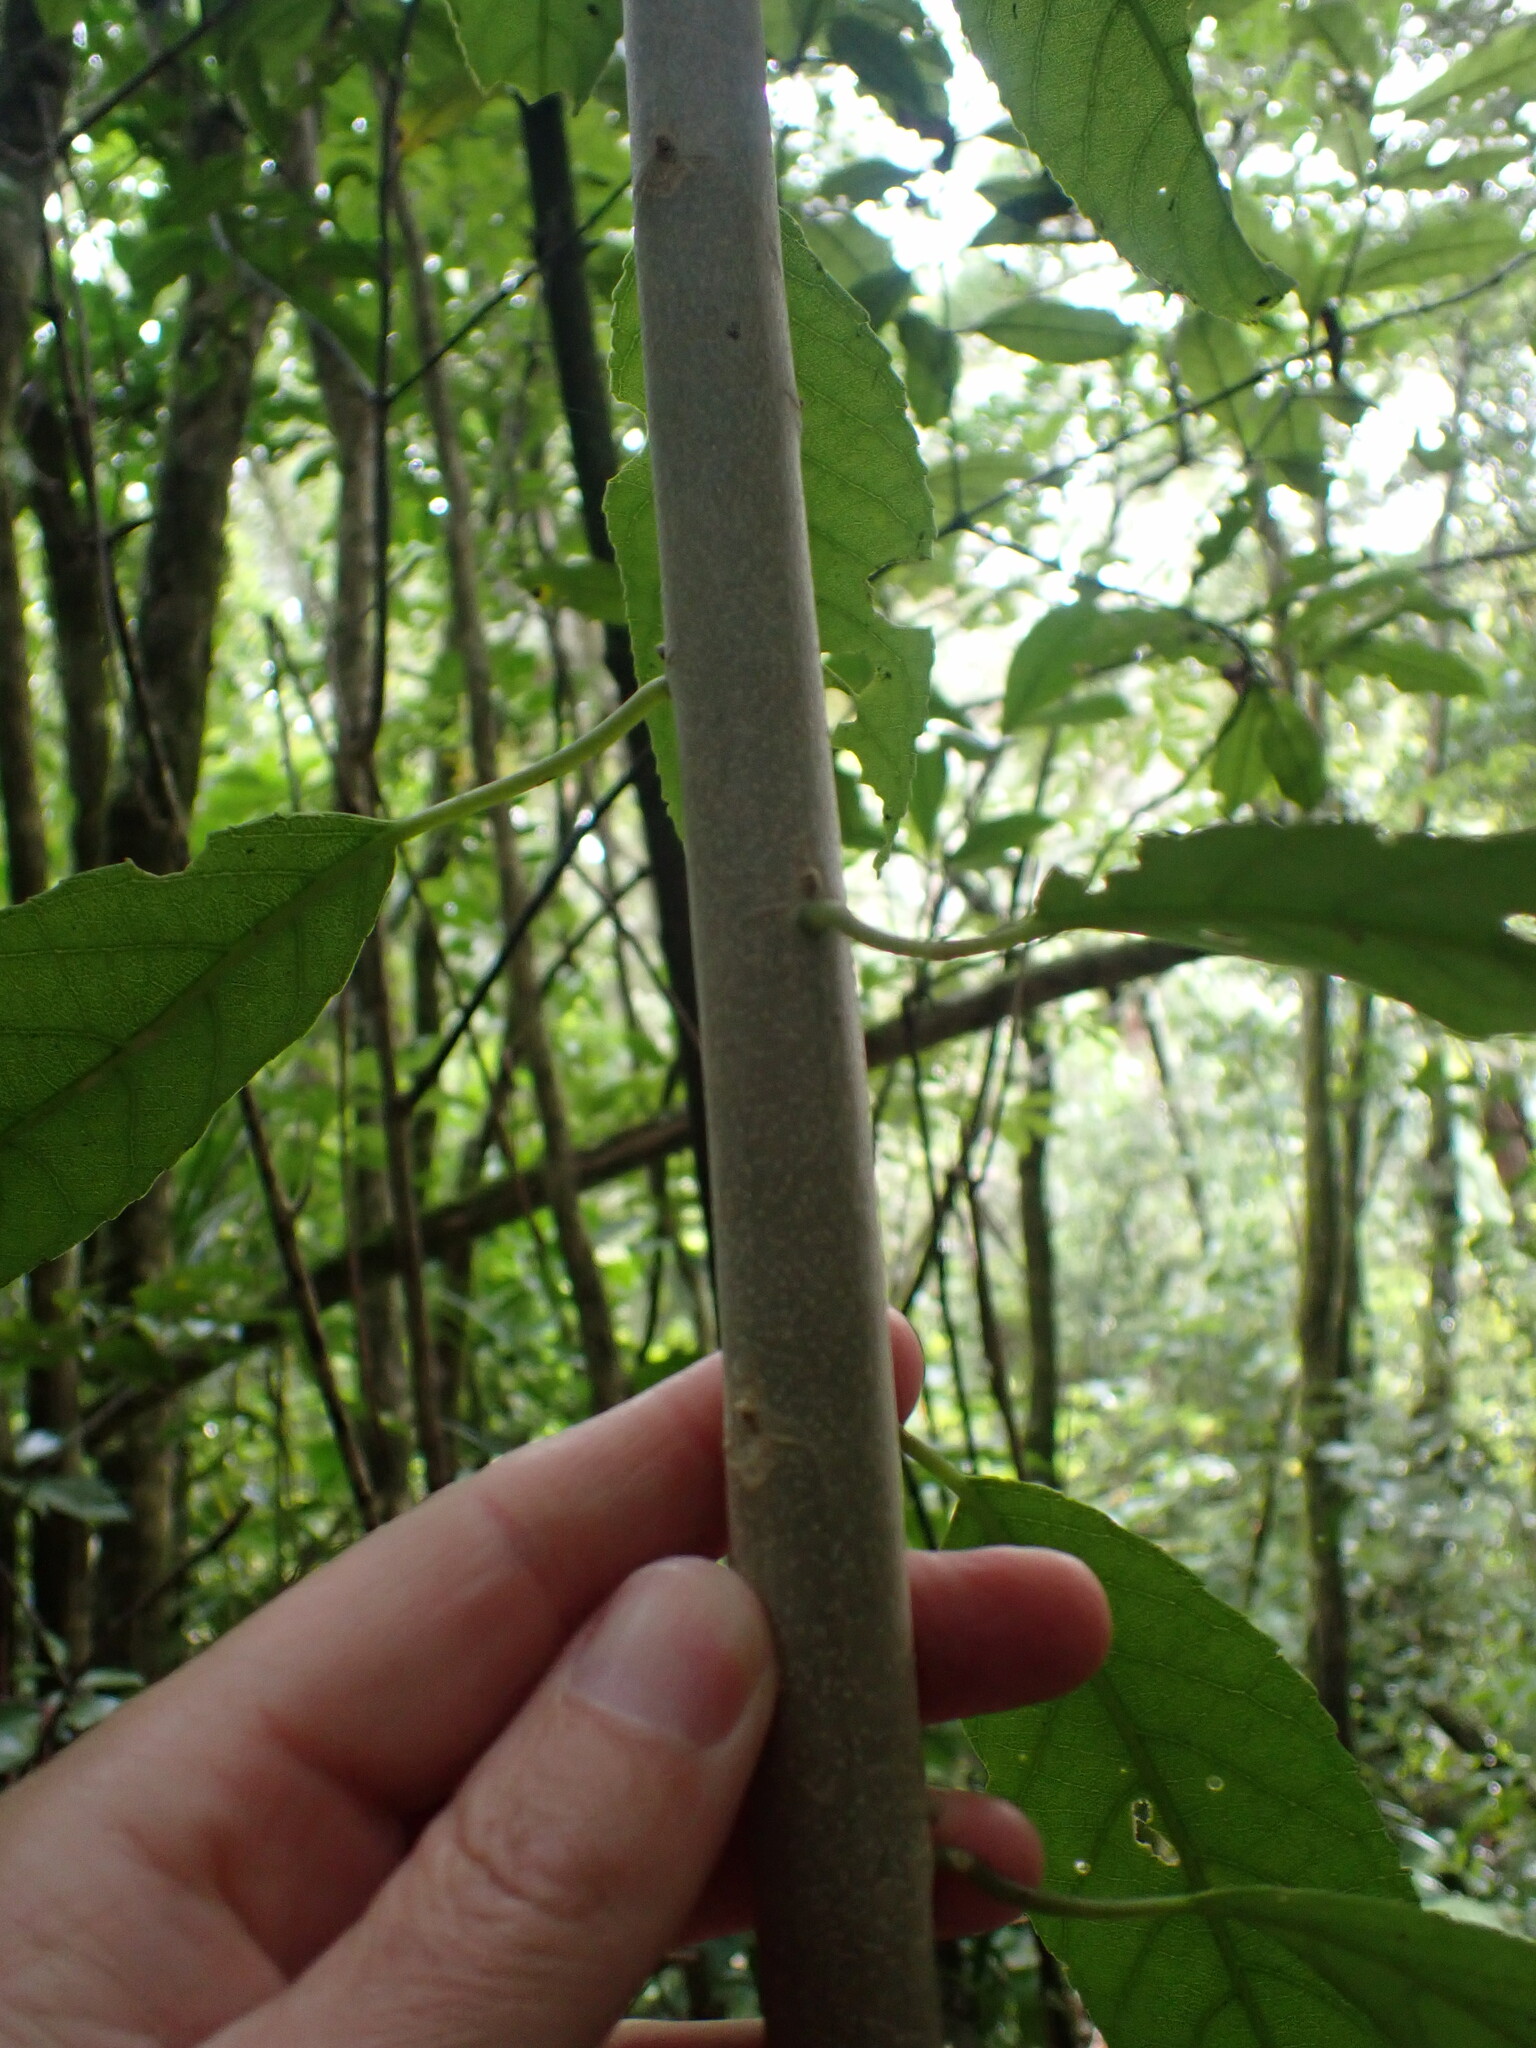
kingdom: Plantae
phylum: Tracheophyta
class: Magnoliopsida
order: Malpighiales
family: Violaceae
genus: Melicytus
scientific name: Melicytus ramiflorus
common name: Mahoe
